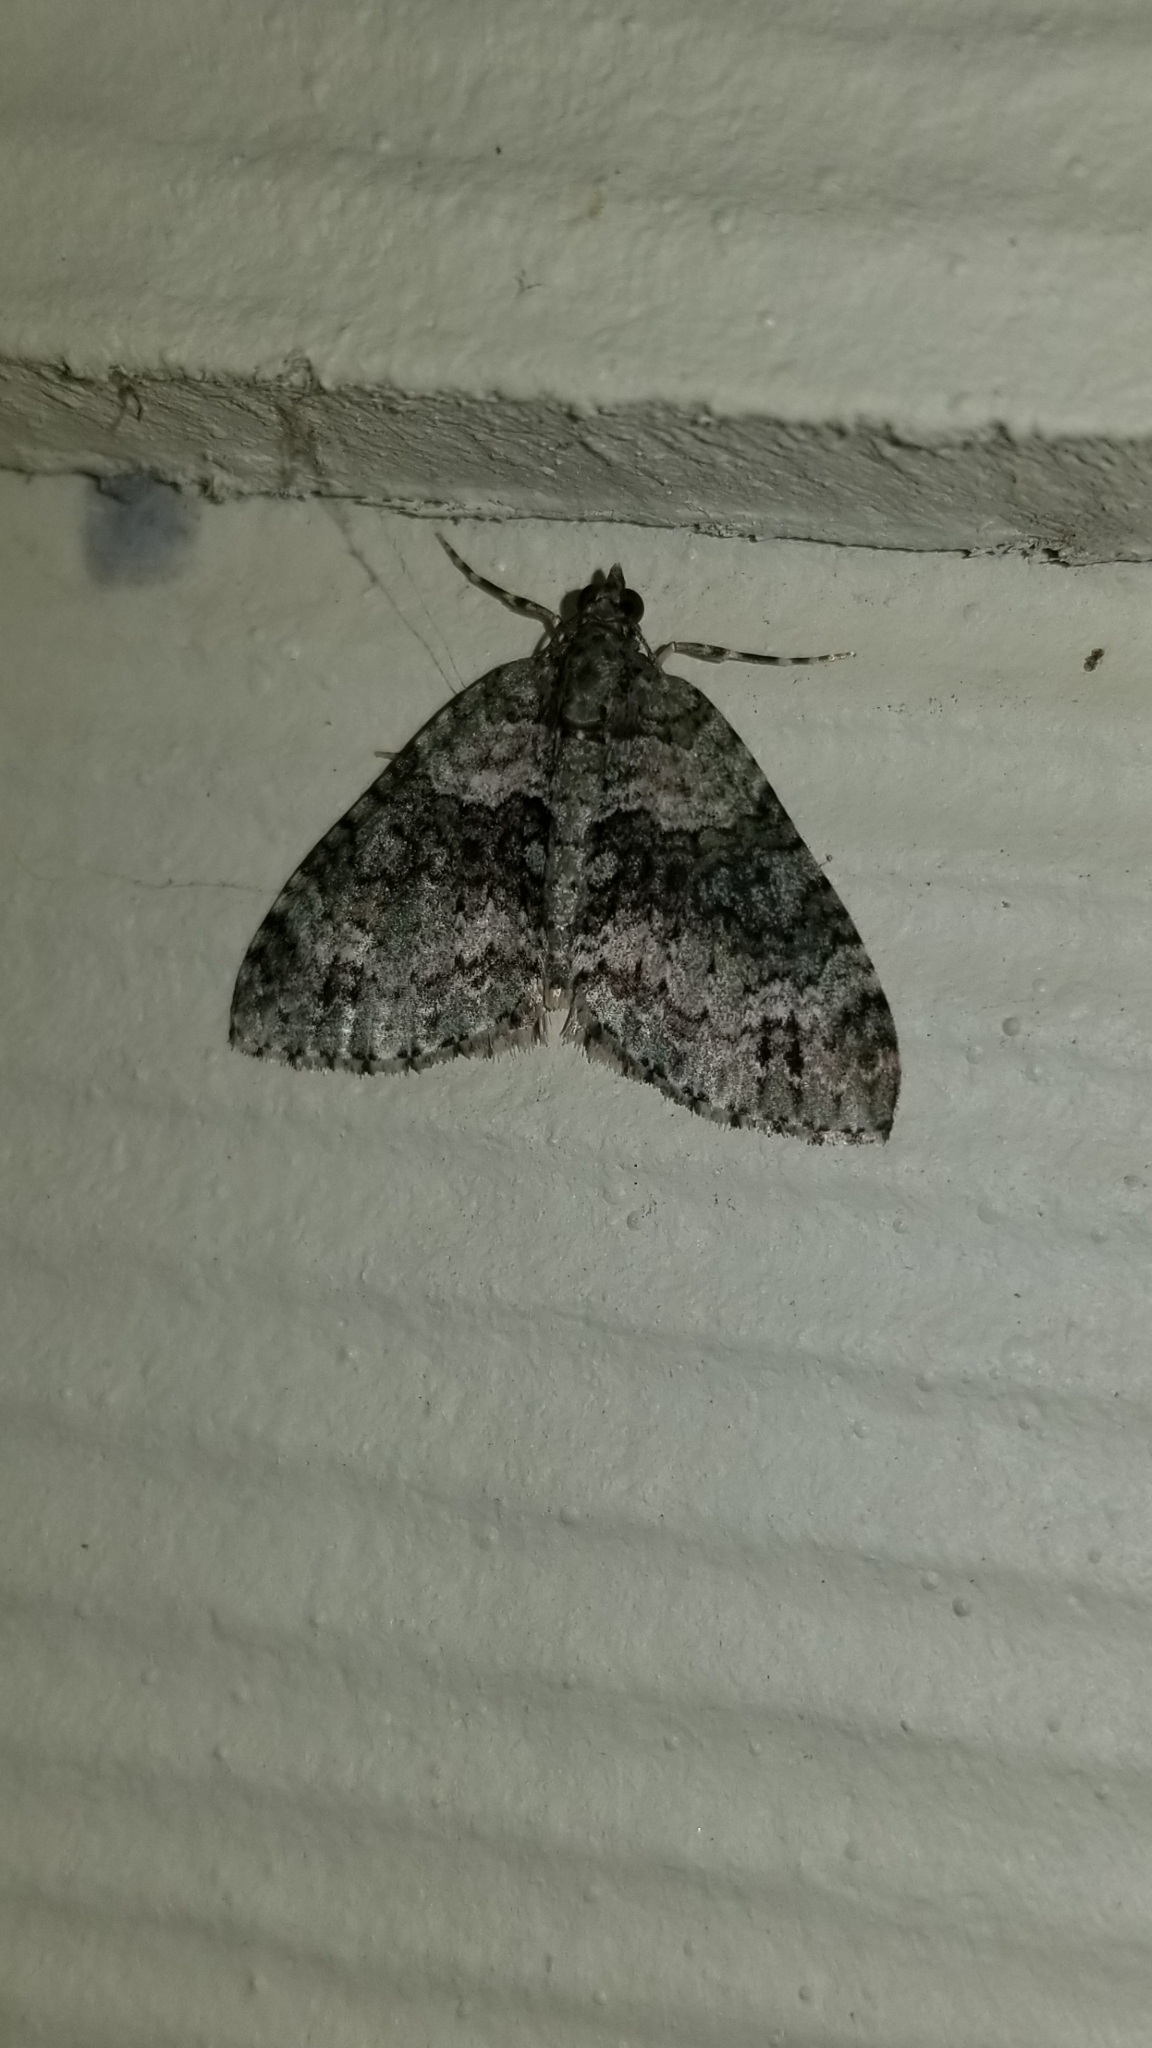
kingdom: Animalia
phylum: Arthropoda
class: Insecta
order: Lepidoptera
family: Geometridae
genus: Hammaptera
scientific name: Hammaptera parinotata
